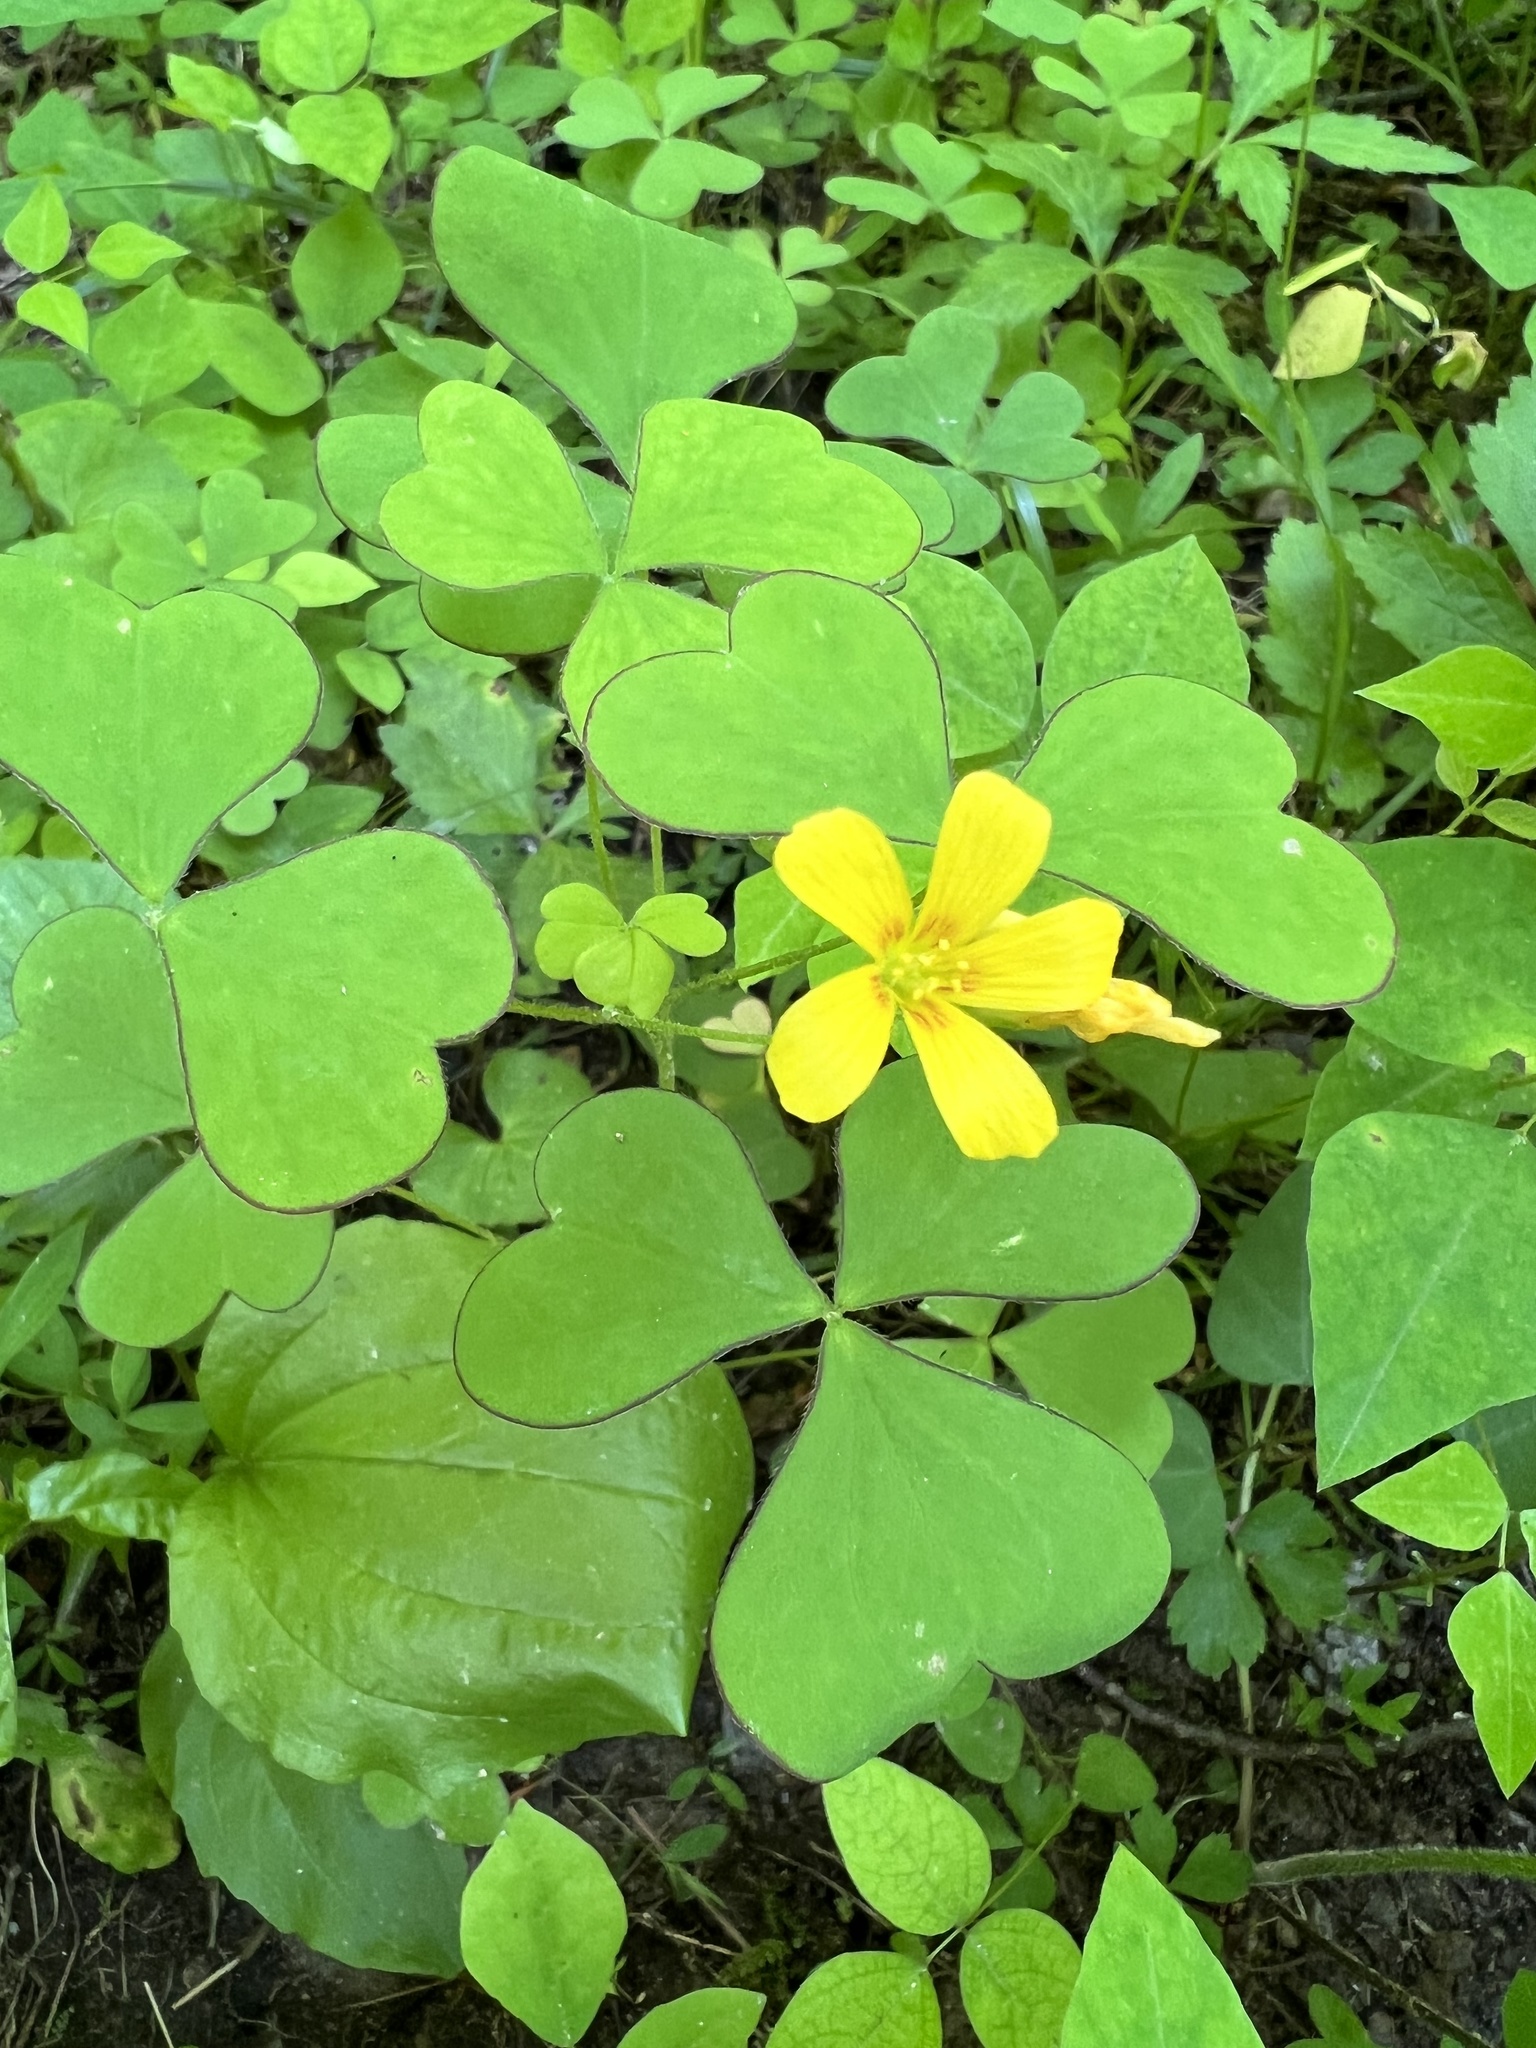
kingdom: Plantae
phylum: Tracheophyta
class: Magnoliopsida
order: Oxalidales
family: Oxalidaceae
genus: Oxalis
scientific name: Oxalis grandis
